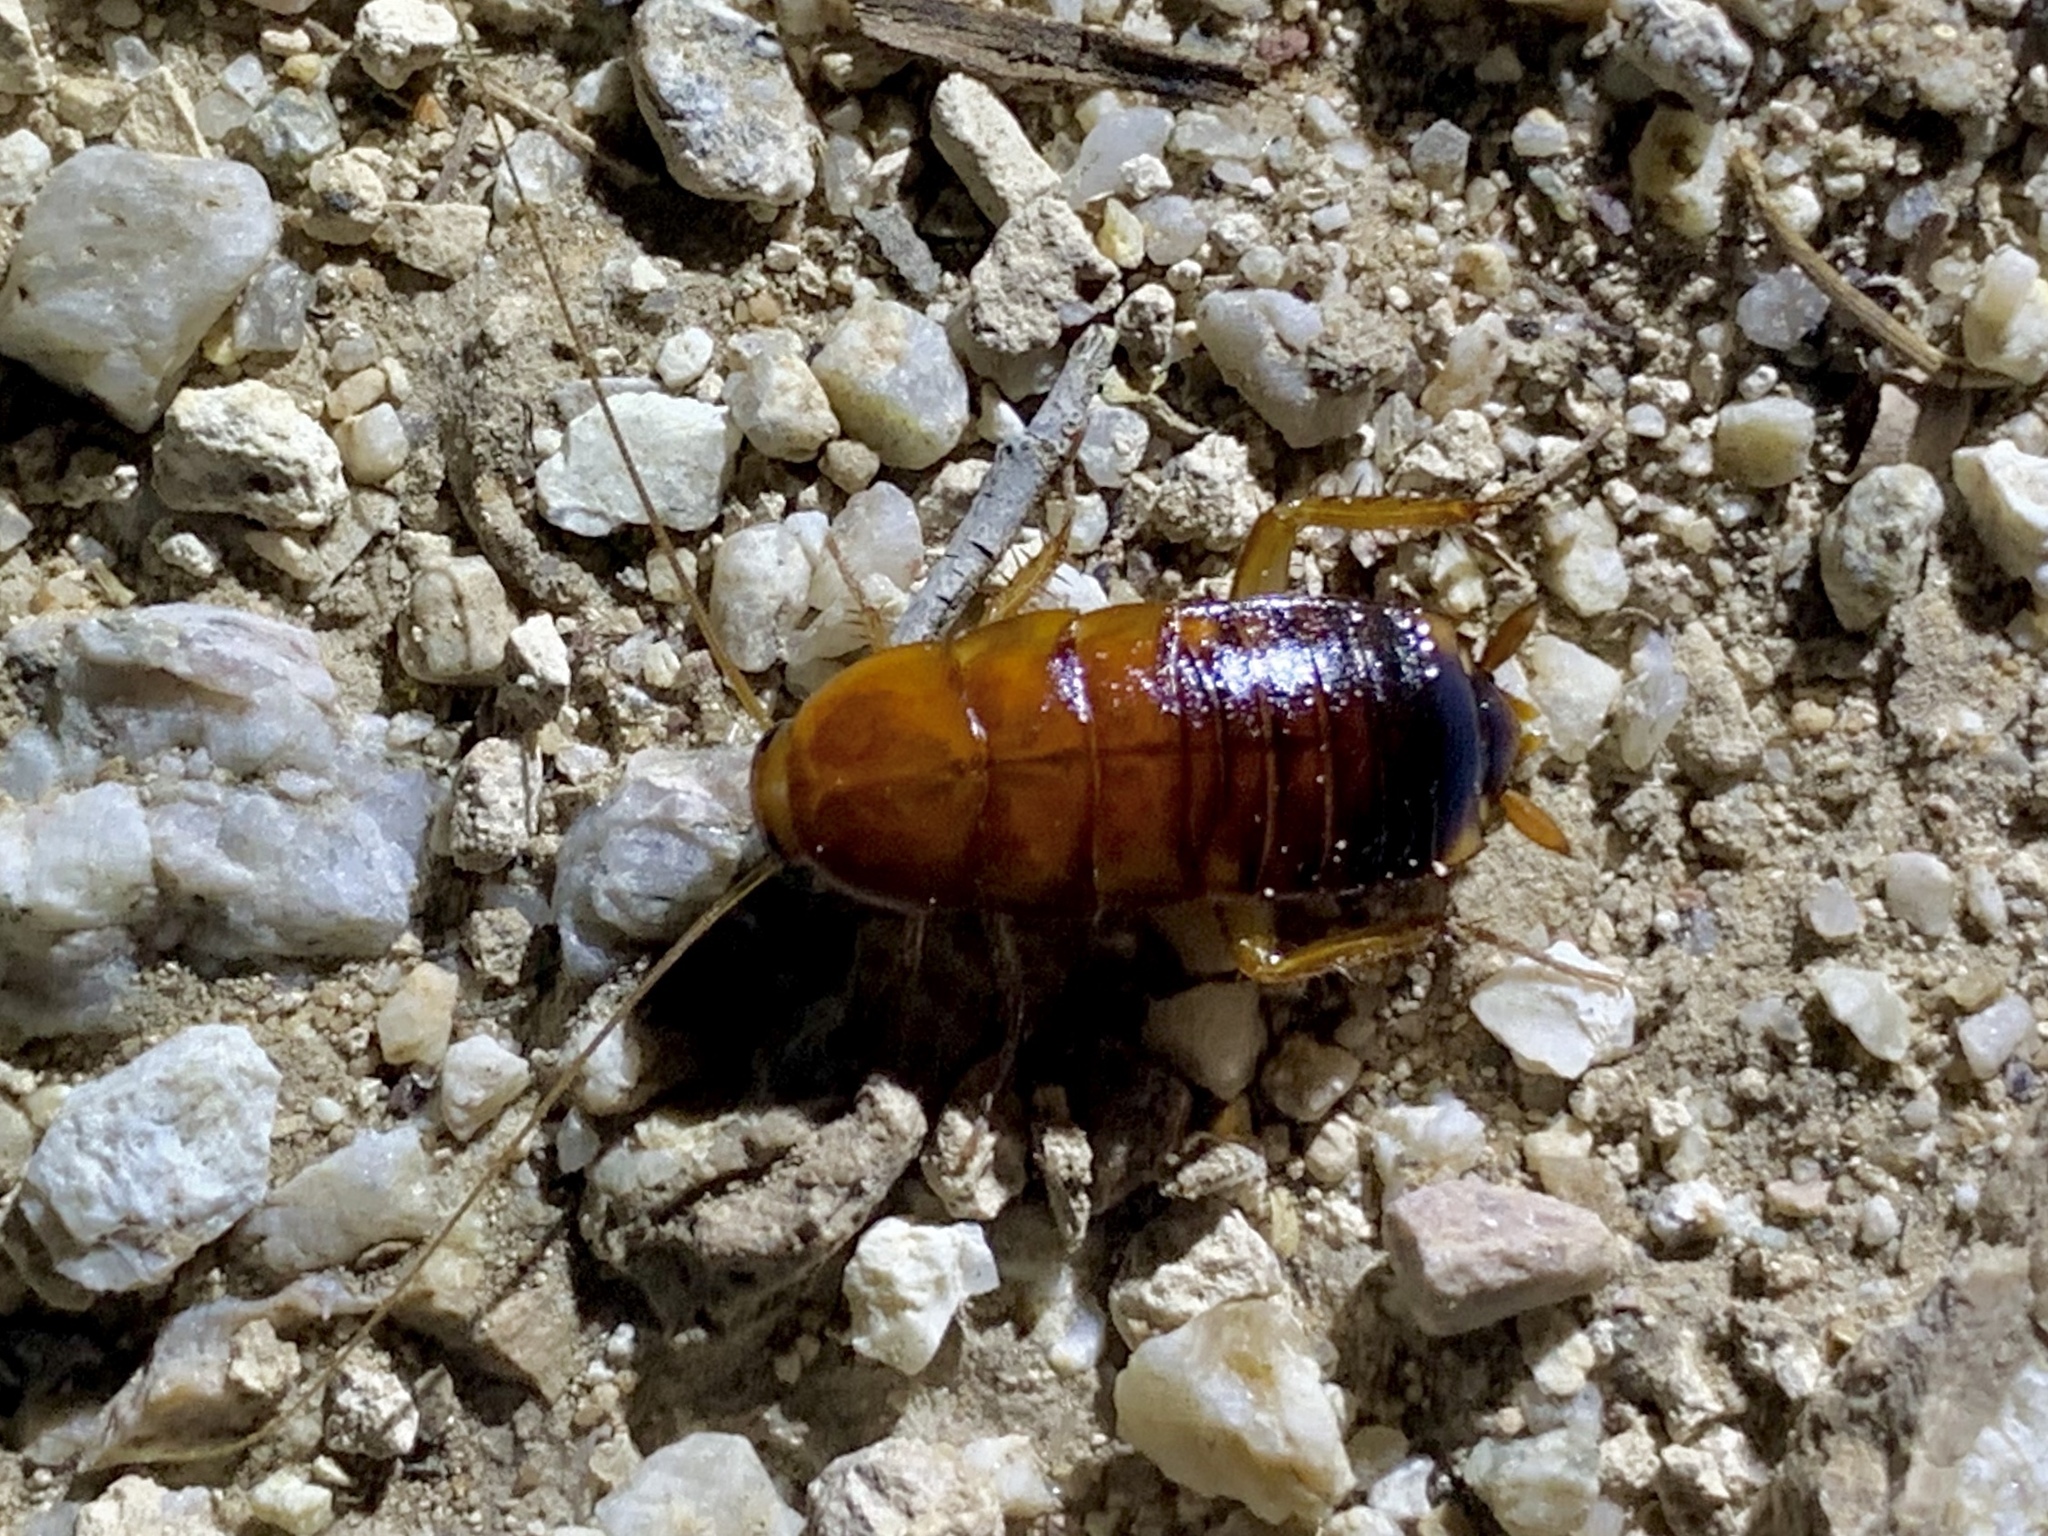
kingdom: Animalia
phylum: Arthropoda
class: Insecta
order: Blattodea
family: Blattidae
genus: Periplaneta
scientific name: Periplaneta lateralis
